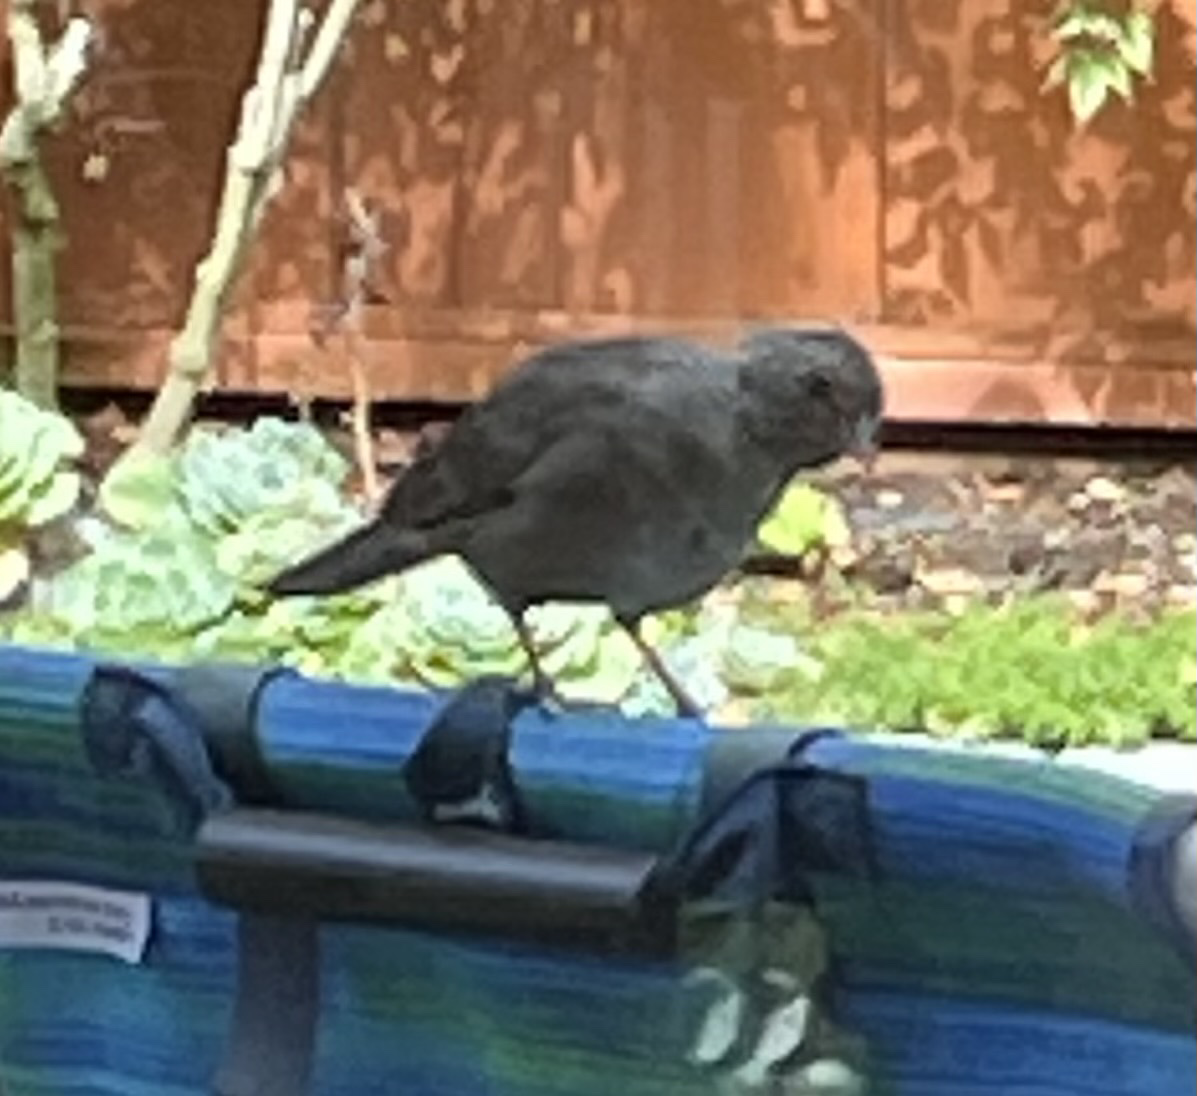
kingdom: Animalia
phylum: Chordata
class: Aves
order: Passeriformes
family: Passerellidae
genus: Melozone
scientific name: Melozone crissalis
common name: California towhee
